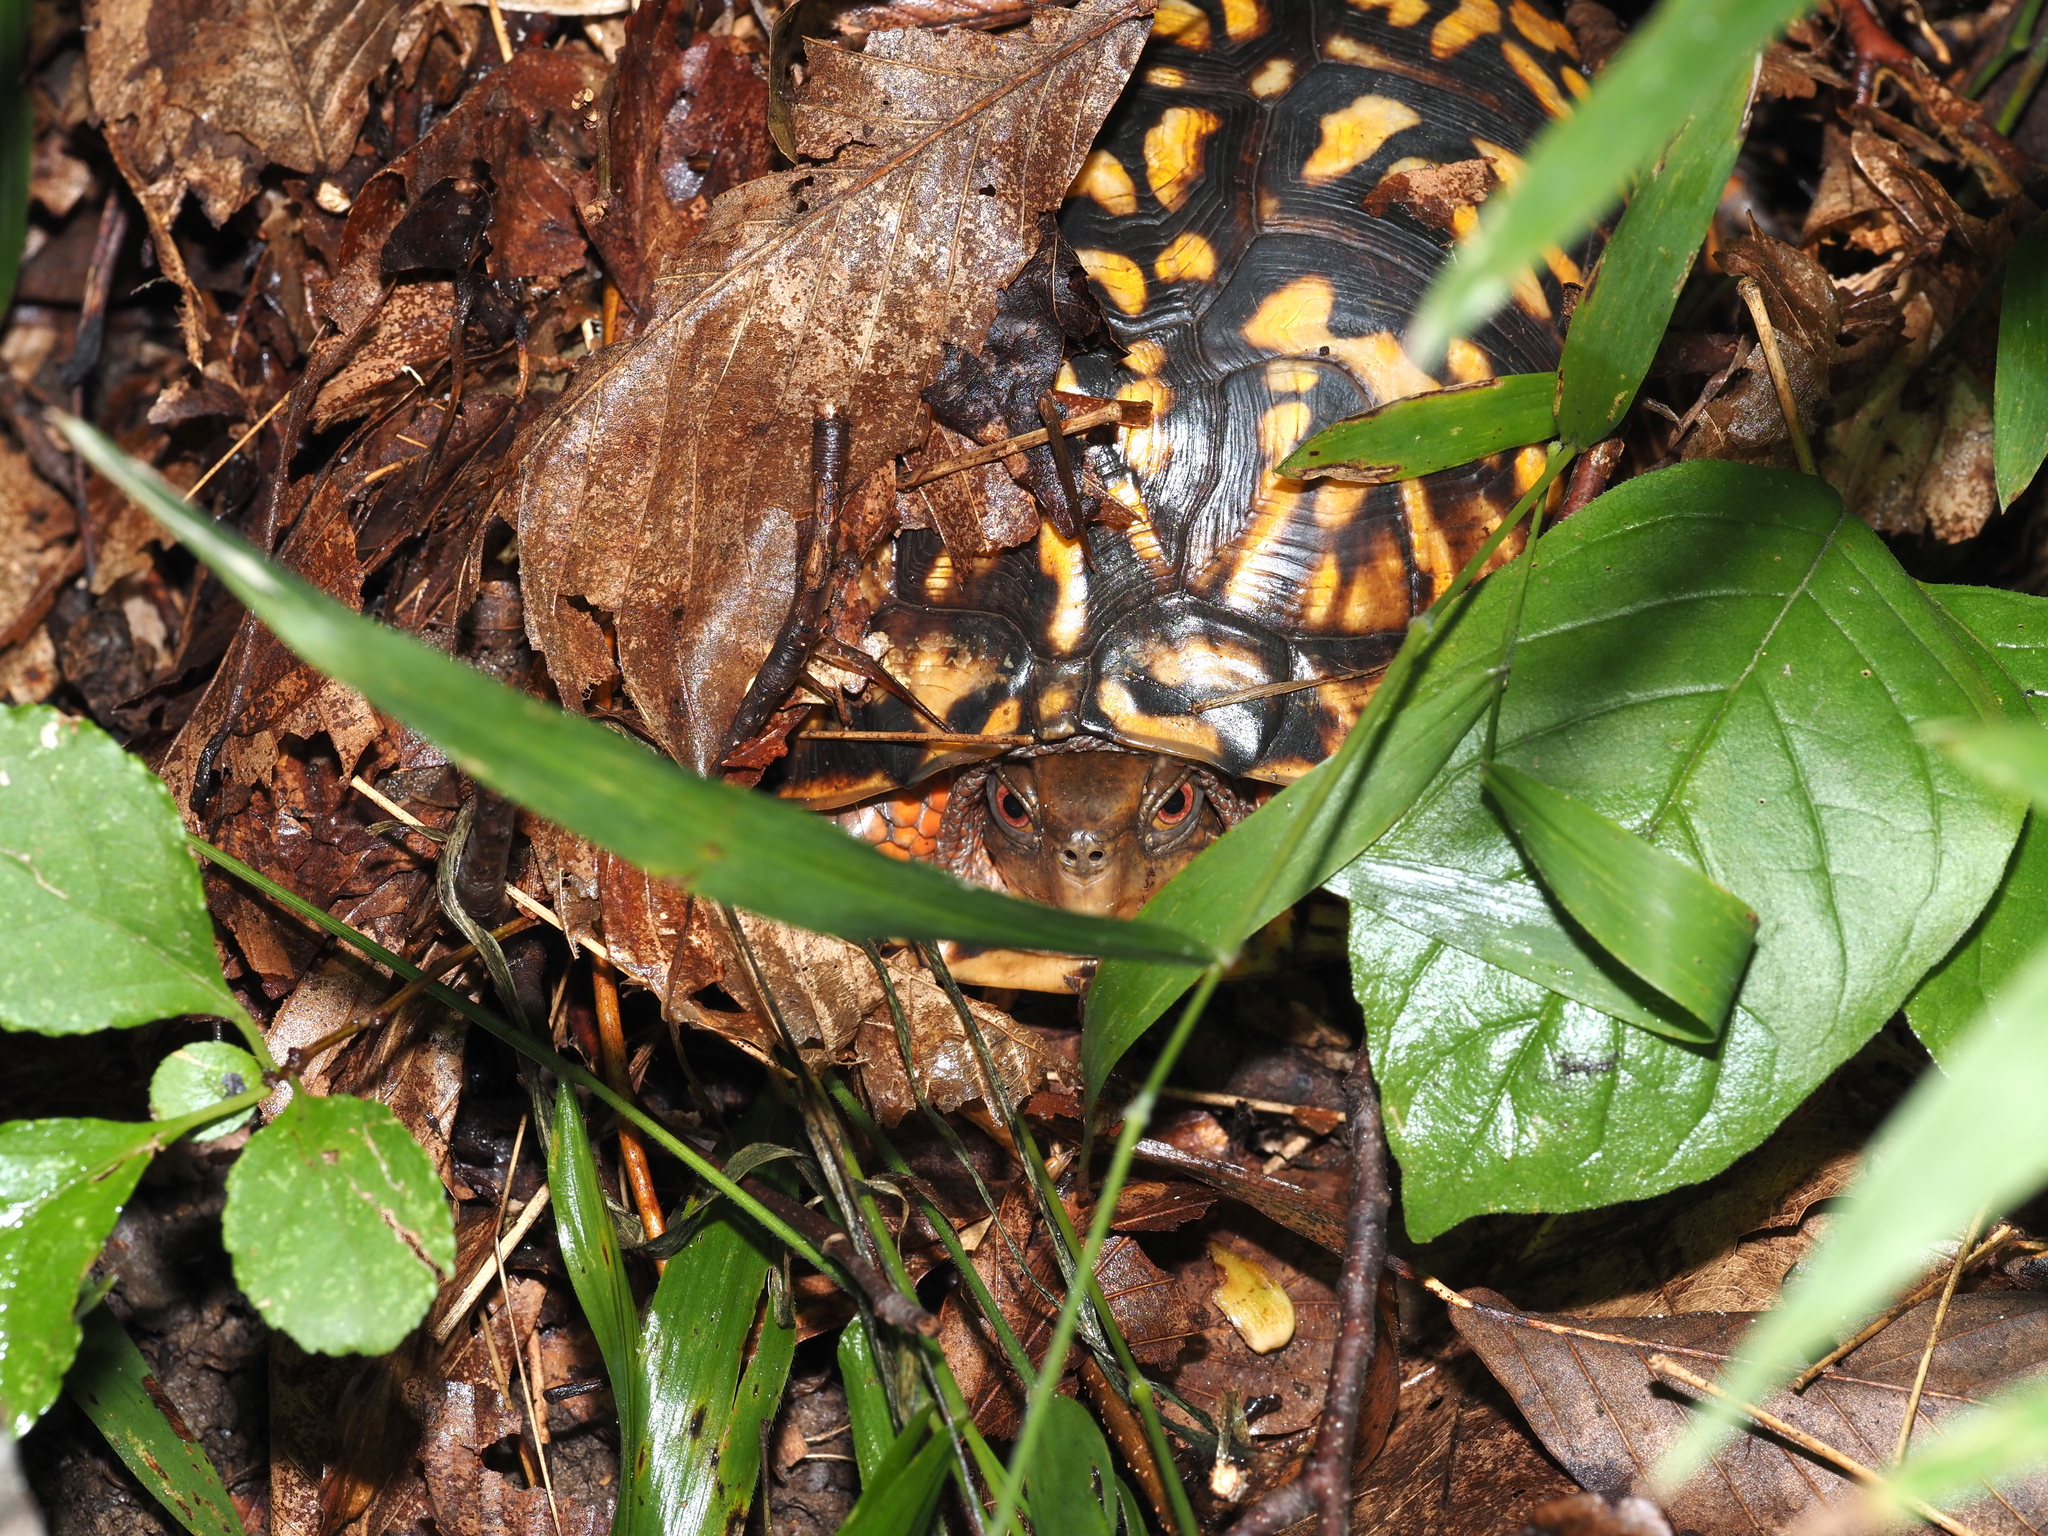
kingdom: Animalia
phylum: Chordata
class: Testudines
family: Emydidae
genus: Terrapene
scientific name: Terrapene carolina
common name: Common box turtle
